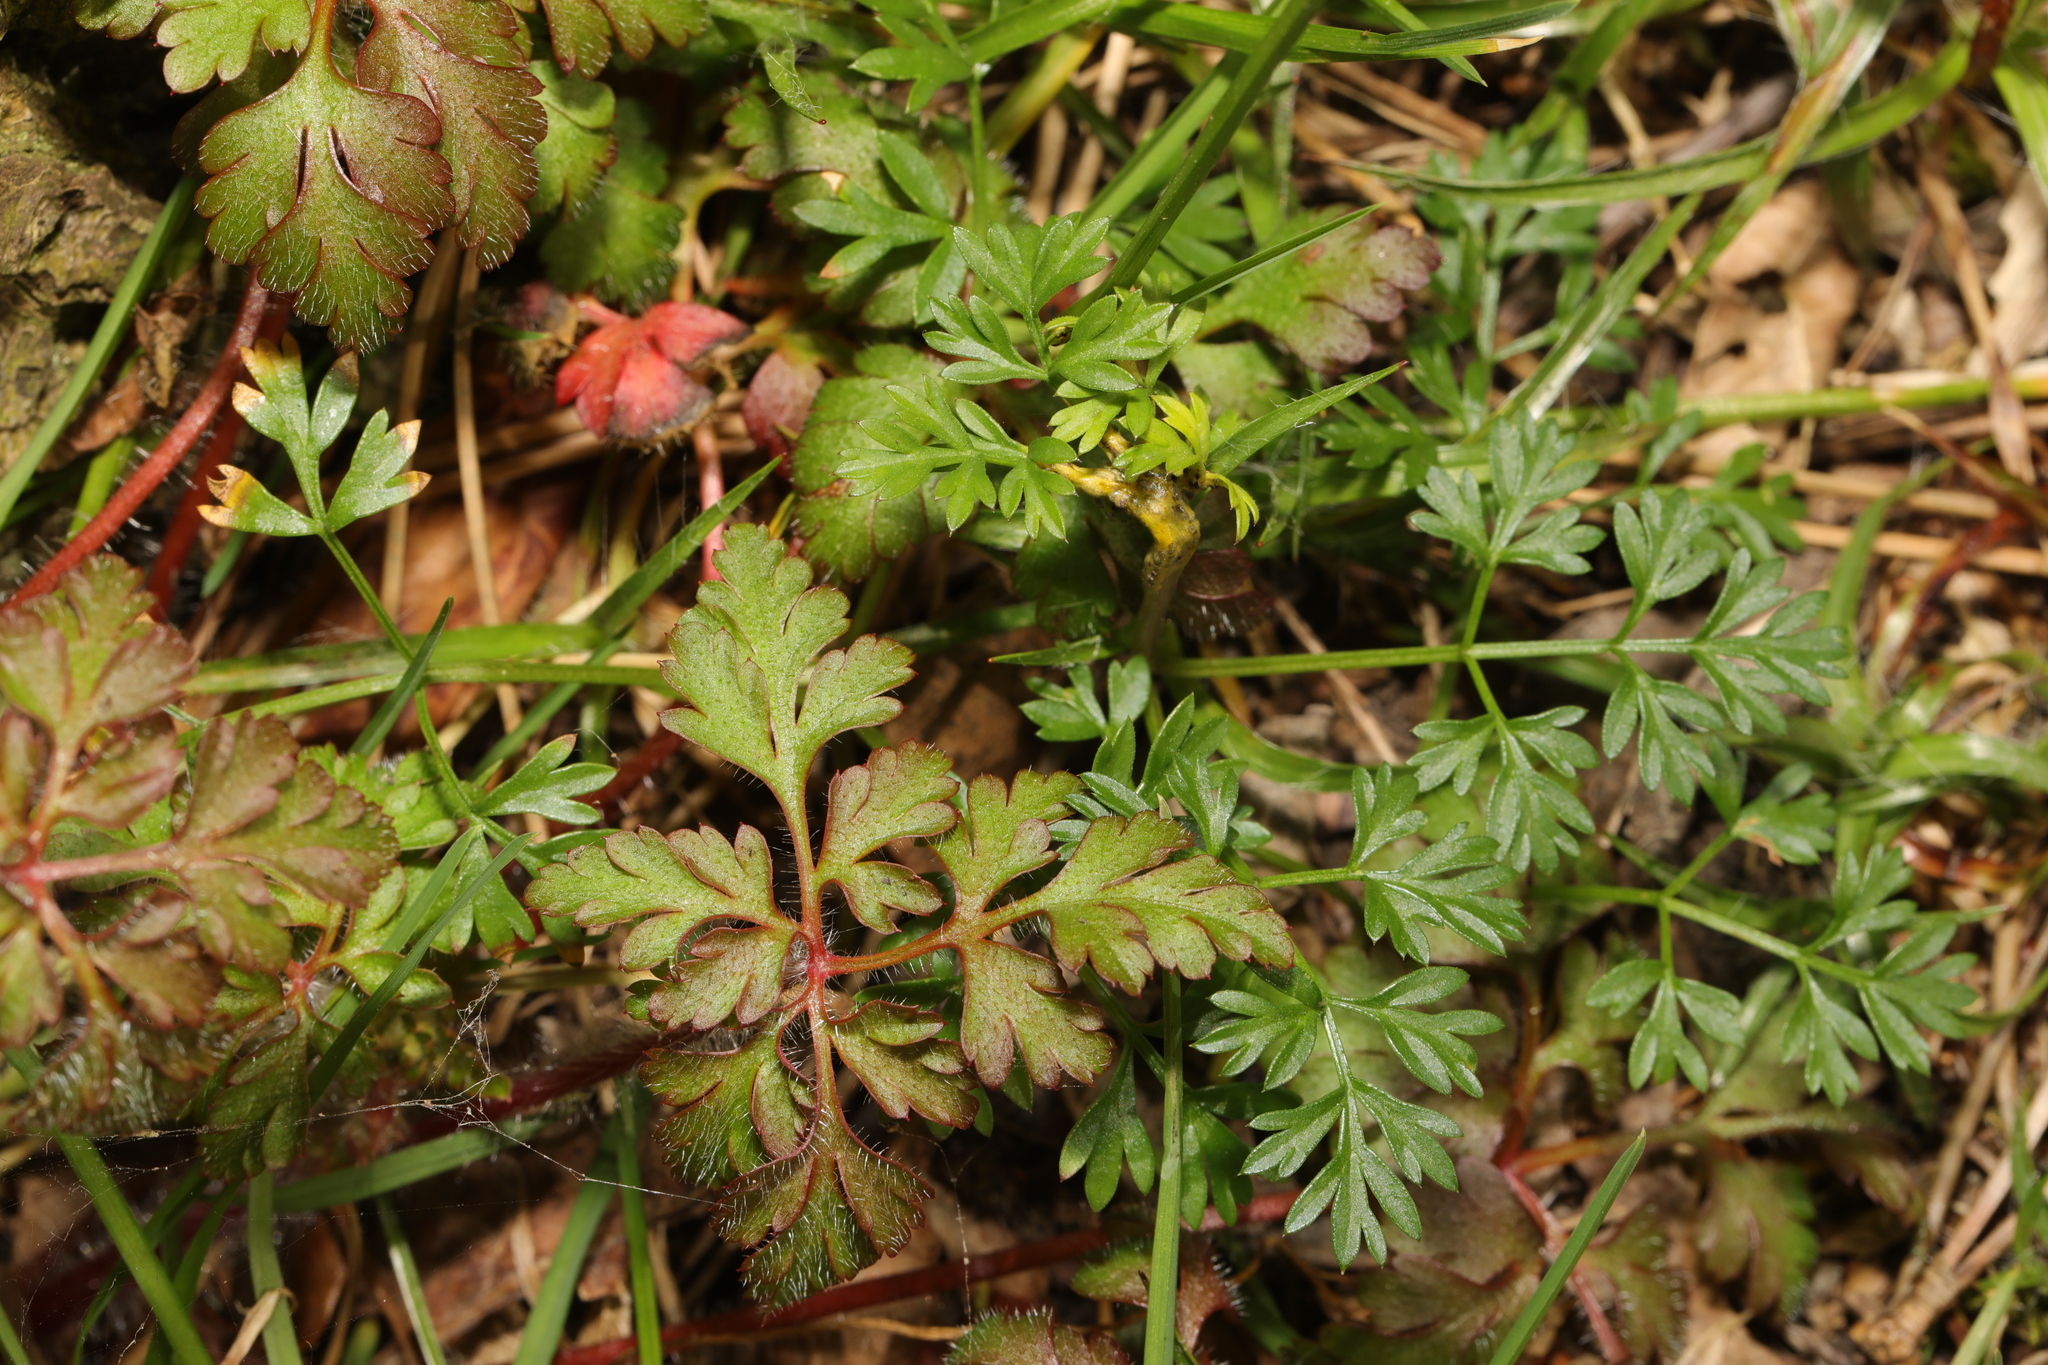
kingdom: Plantae
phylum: Tracheophyta
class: Magnoliopsida
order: Geraniales
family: Geraniaceae
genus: Geranium
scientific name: Geranium robertianum
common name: Herb-robert
